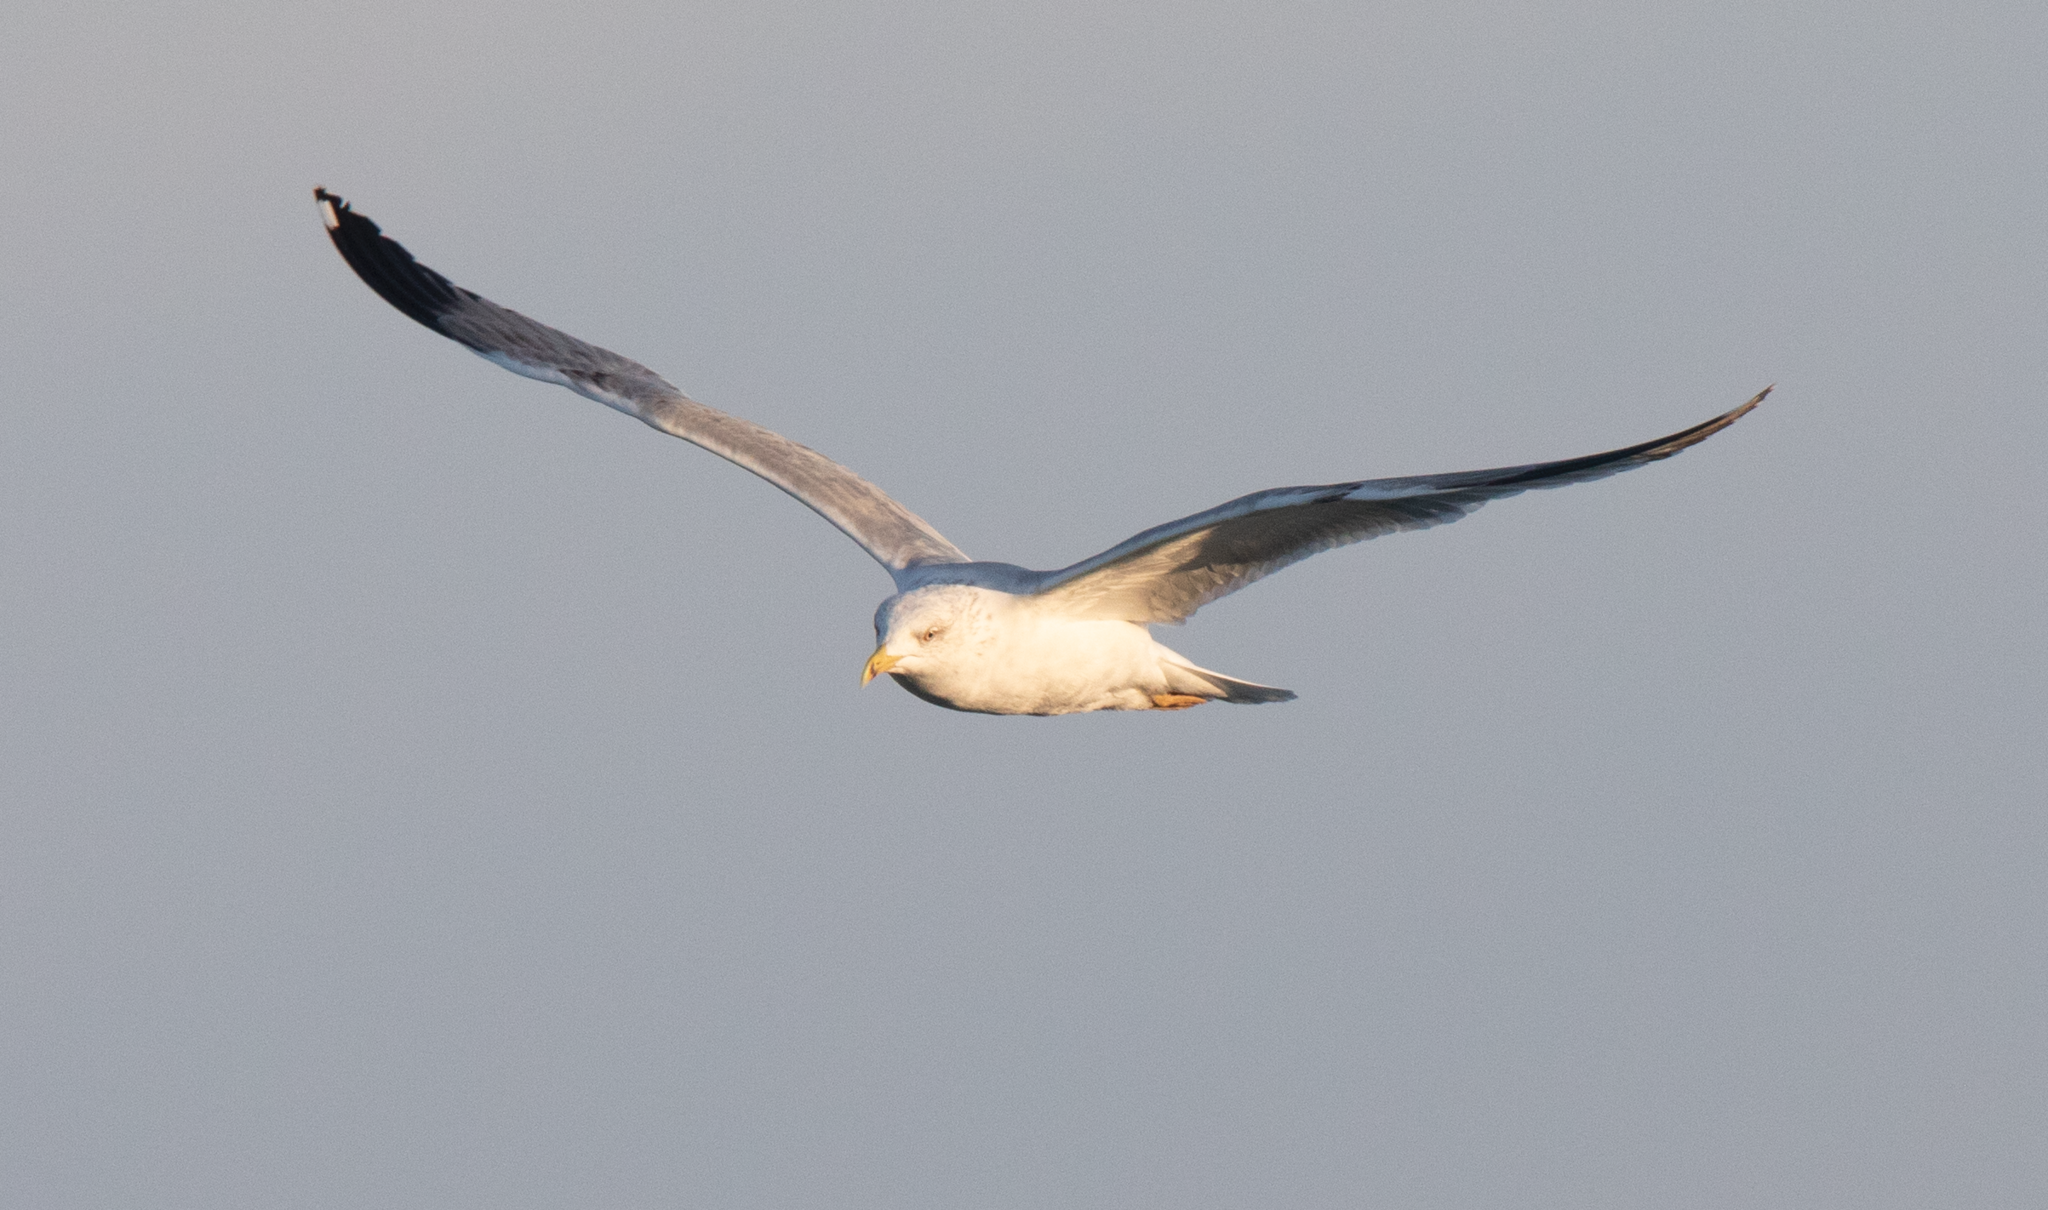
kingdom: Animalia
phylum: Chordata
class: Aves
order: Charadriiformes
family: Laridae
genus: Larus
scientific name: Larus michahellis
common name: Yellow-legged gull
